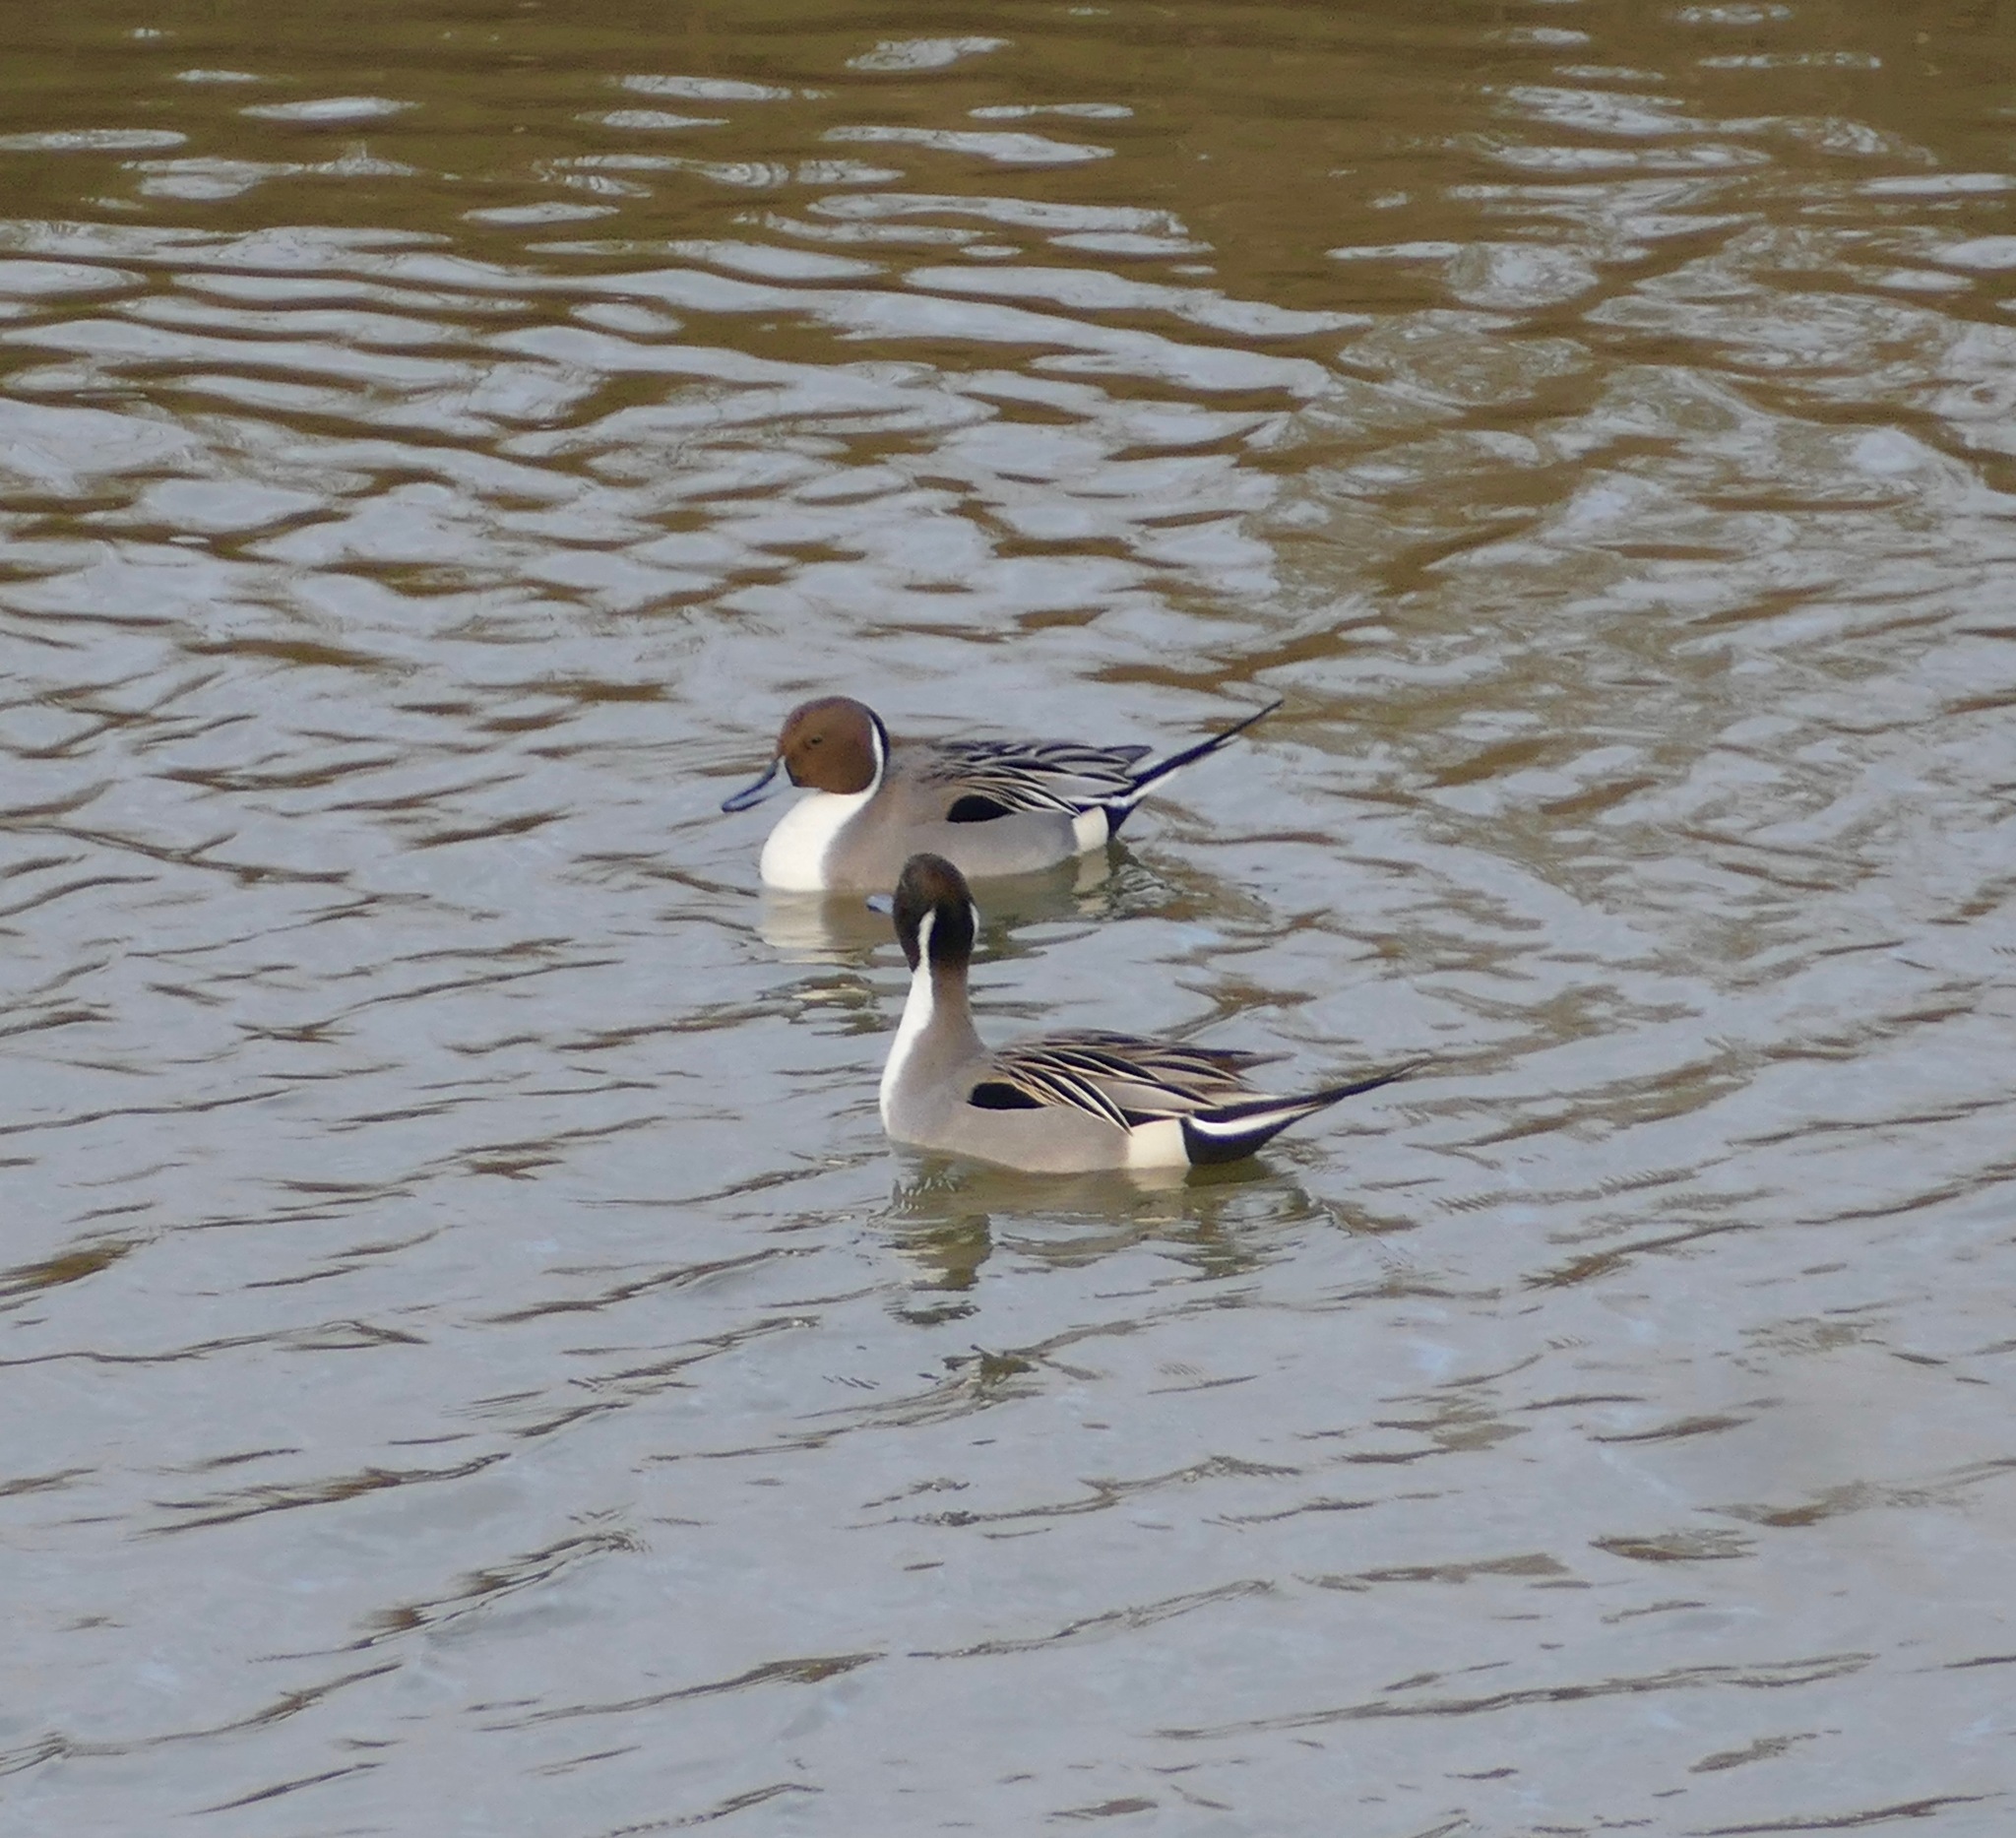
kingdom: Animalia
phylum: Chordata
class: Aves
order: Anseriformes
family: Anatidae
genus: Anas
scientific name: Anas acuta
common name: Northern pintail
